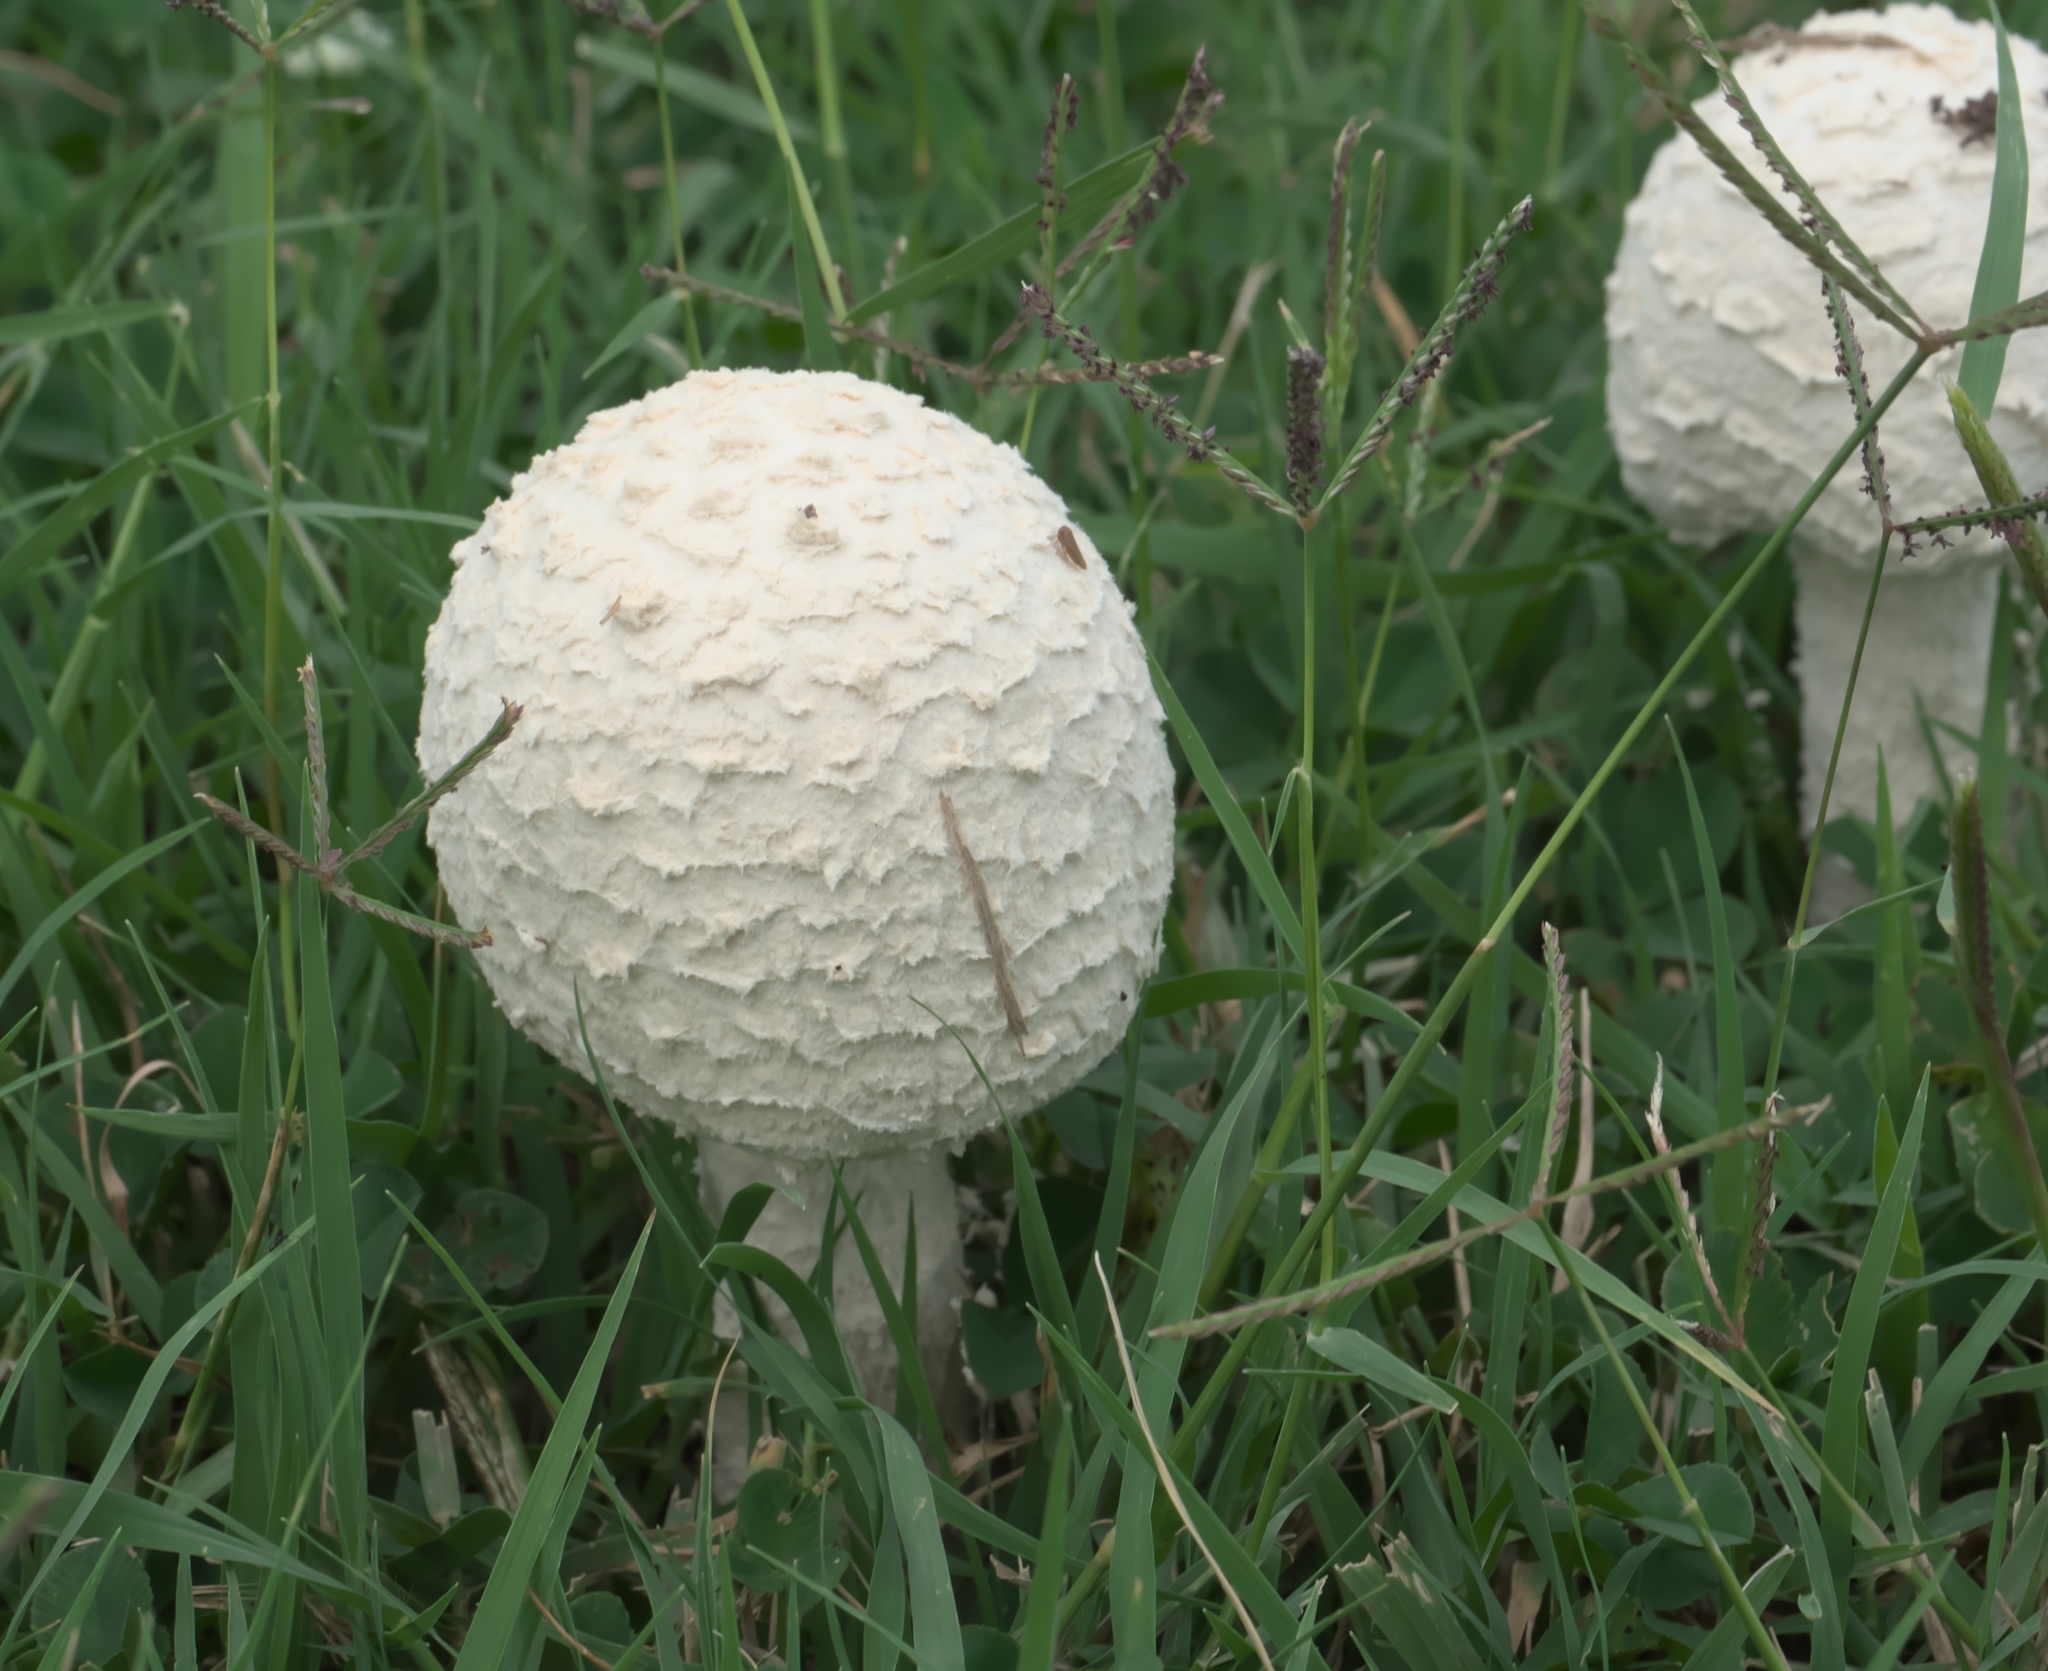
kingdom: Fungi
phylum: Basidiomycota
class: Agaricomycetes
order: Agaricales
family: Amanitaceae
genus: Amanita
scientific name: Amanita thiersii
